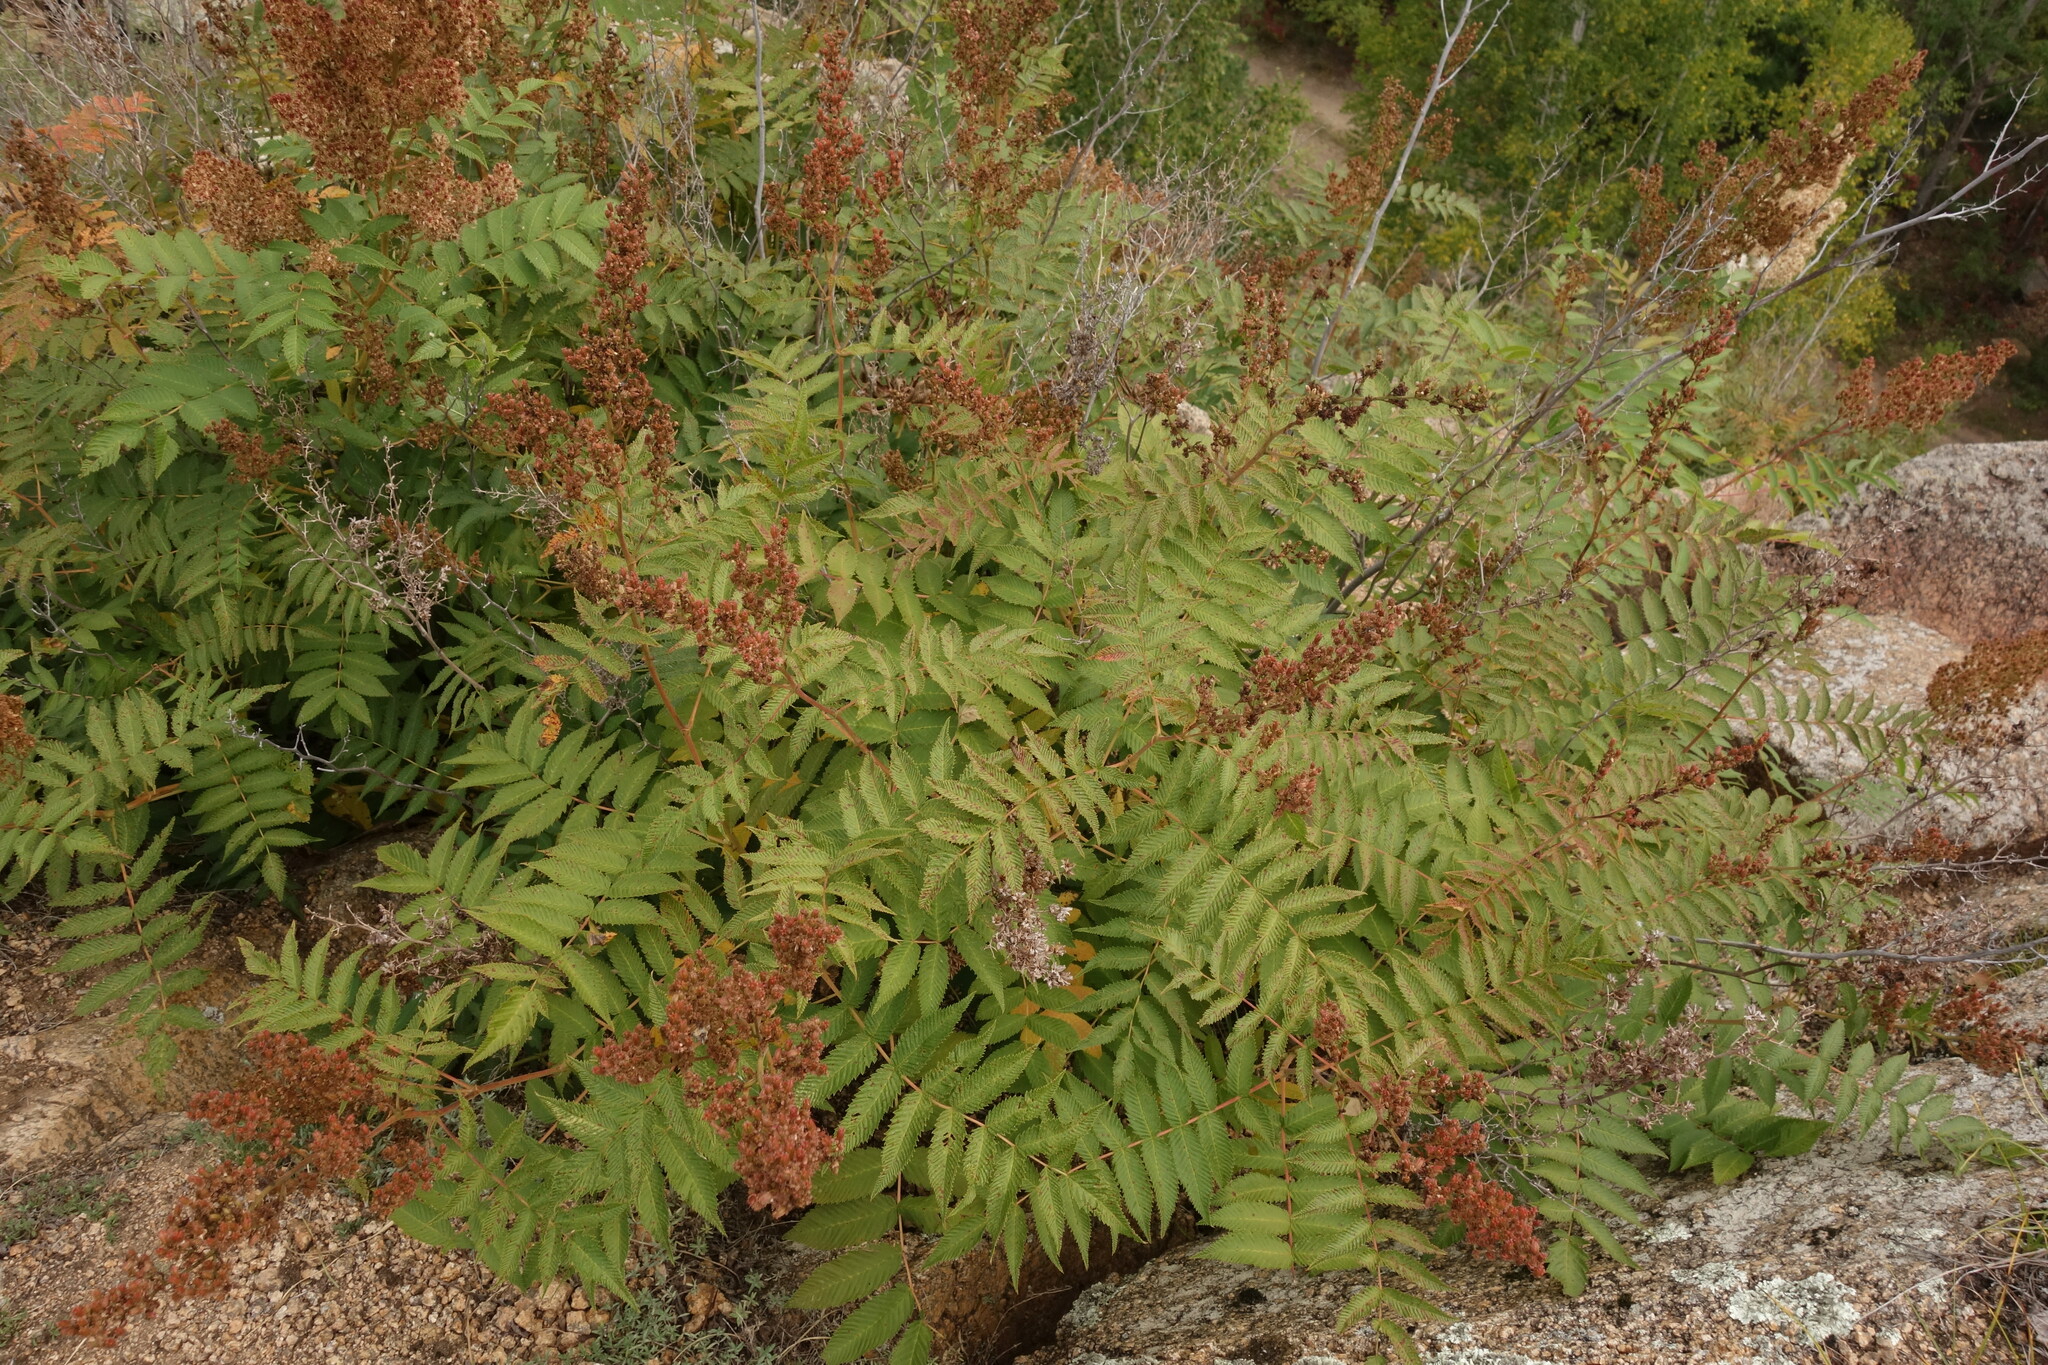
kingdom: Plantae
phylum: Tracheophyta
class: Magnoliopsida
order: Rosales
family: Rosaceae
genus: Sorbaria
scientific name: Sorbaria sorbifolia
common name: False spiraea
